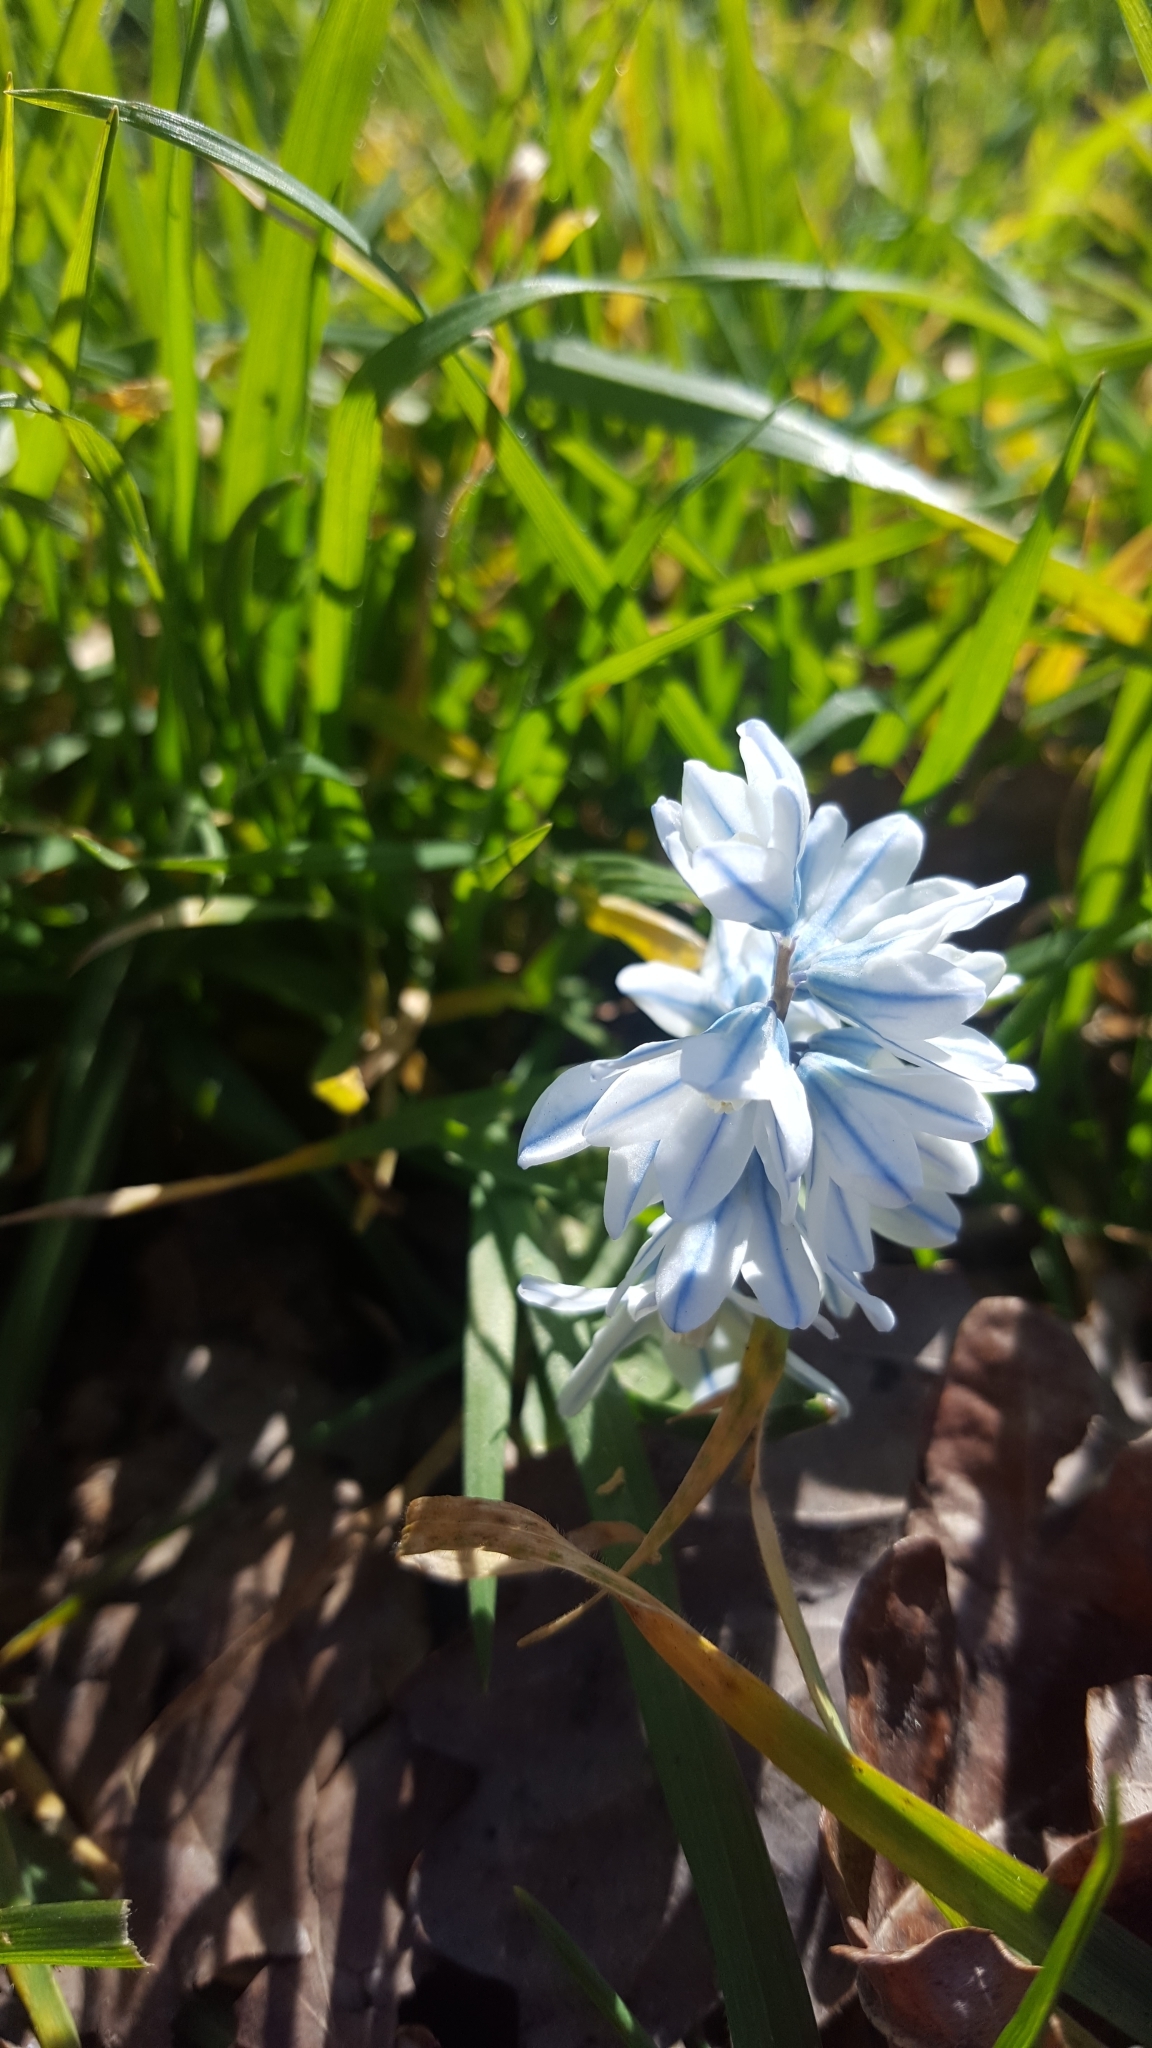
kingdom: Plantae
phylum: Tracheophyta
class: Liliopsida
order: Asparagales
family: Asparagaceae
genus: Puschkinia
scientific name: Puschkinia scilloides
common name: Striped squill
